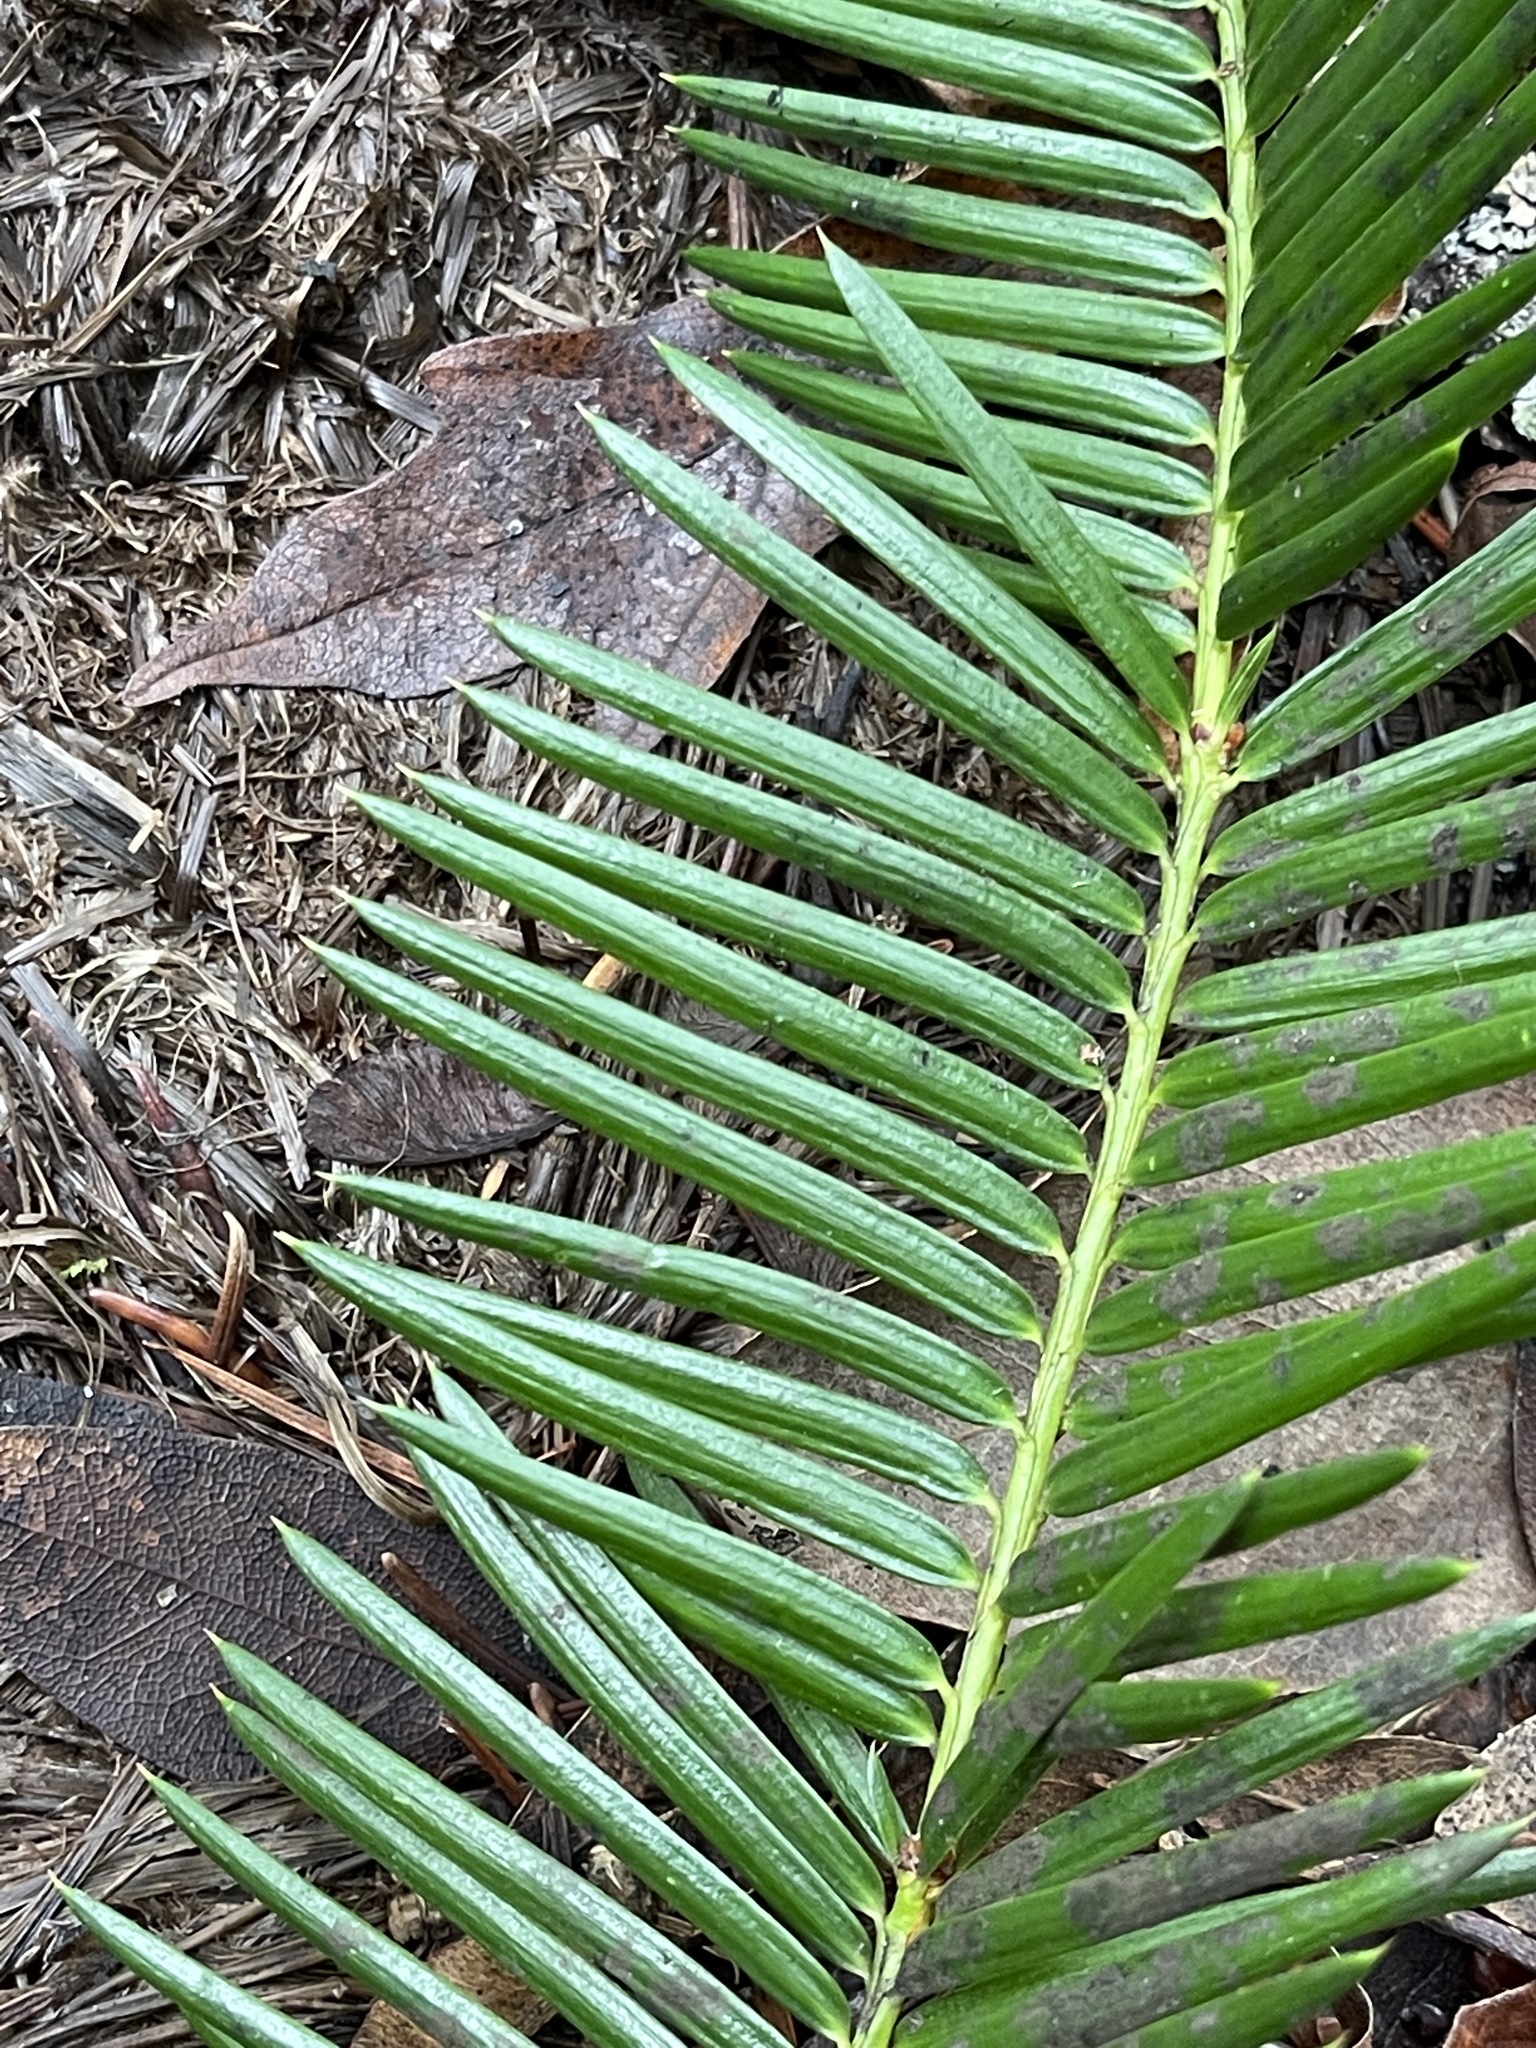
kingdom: Plantae
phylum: Tracheophyta
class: Pinopsida
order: Pinales
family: Taxaceae
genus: Torreya
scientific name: Torreya californica
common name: California torreya
